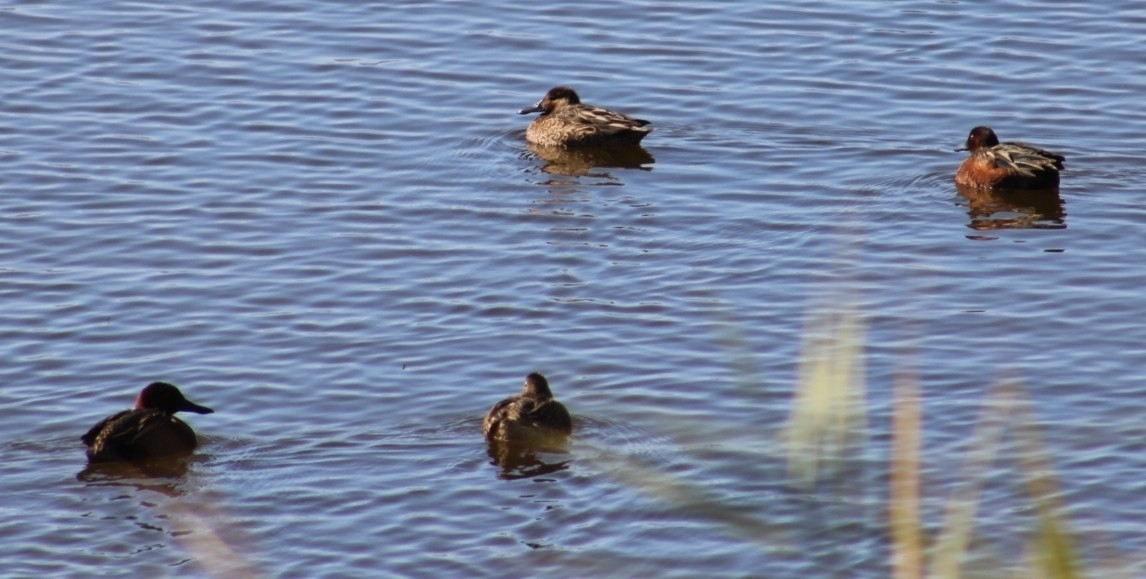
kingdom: Animalia
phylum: Chordata
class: Aves
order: Anseriformes
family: Anatidae
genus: Spatula
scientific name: Spatula cyanoptera
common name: Cinnamon teal
